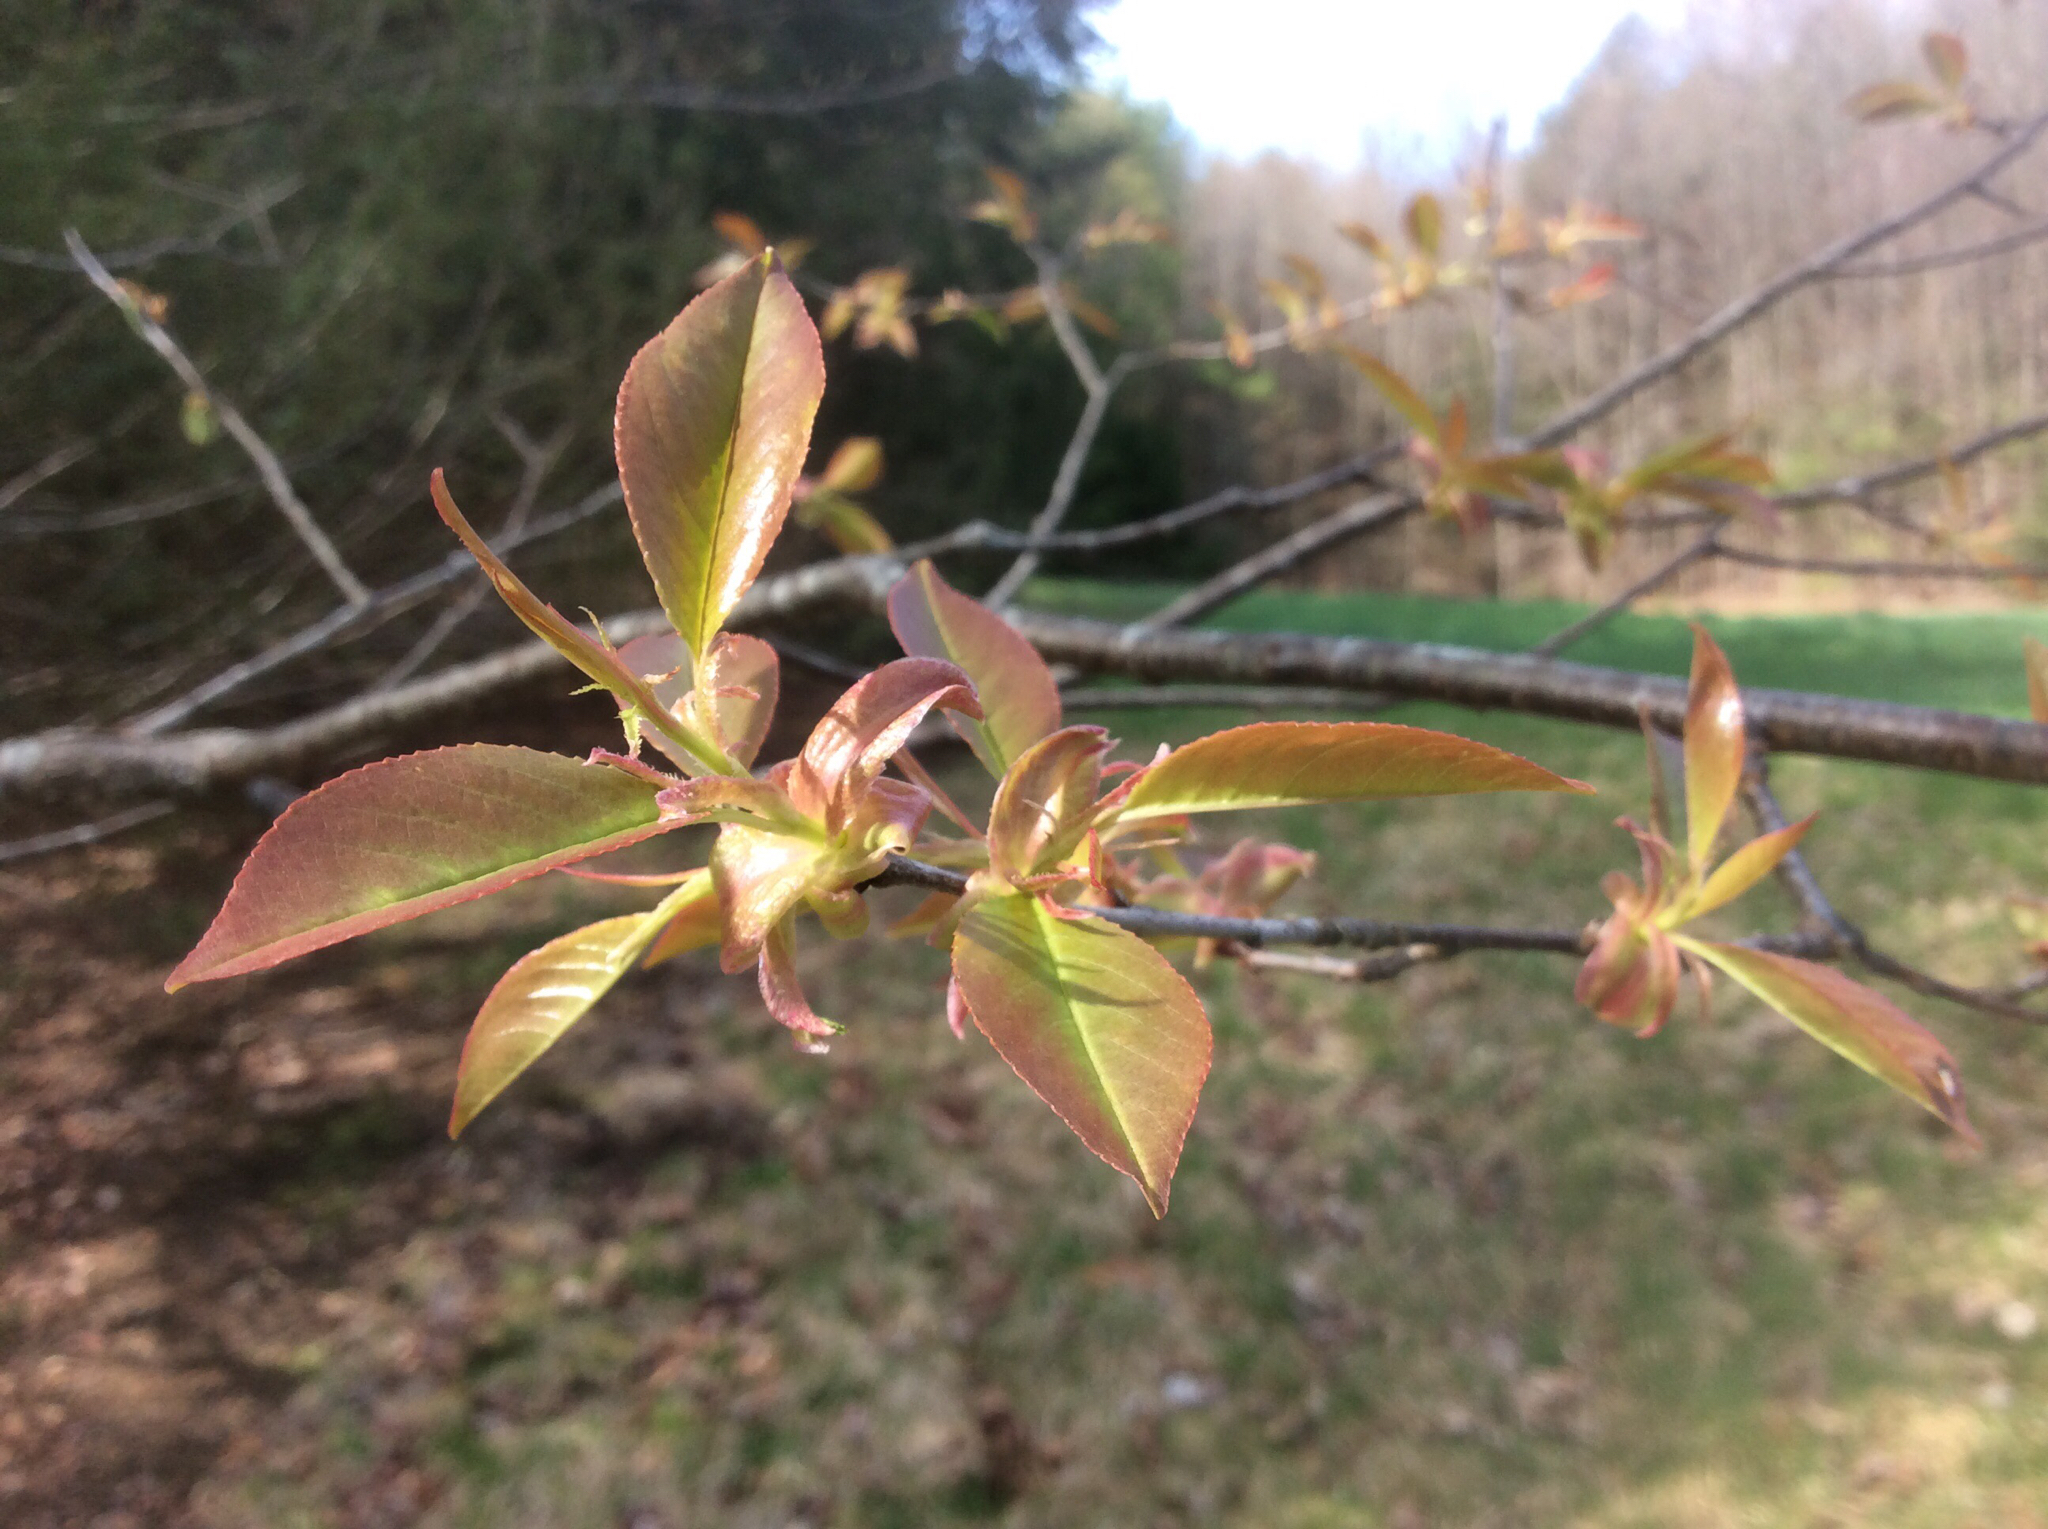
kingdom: Plantae
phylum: Tracheophyta
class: Magnoliopsida
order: Rosales
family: Rosaceae
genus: Prunus
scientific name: Prunus serotina
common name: Black cherry
